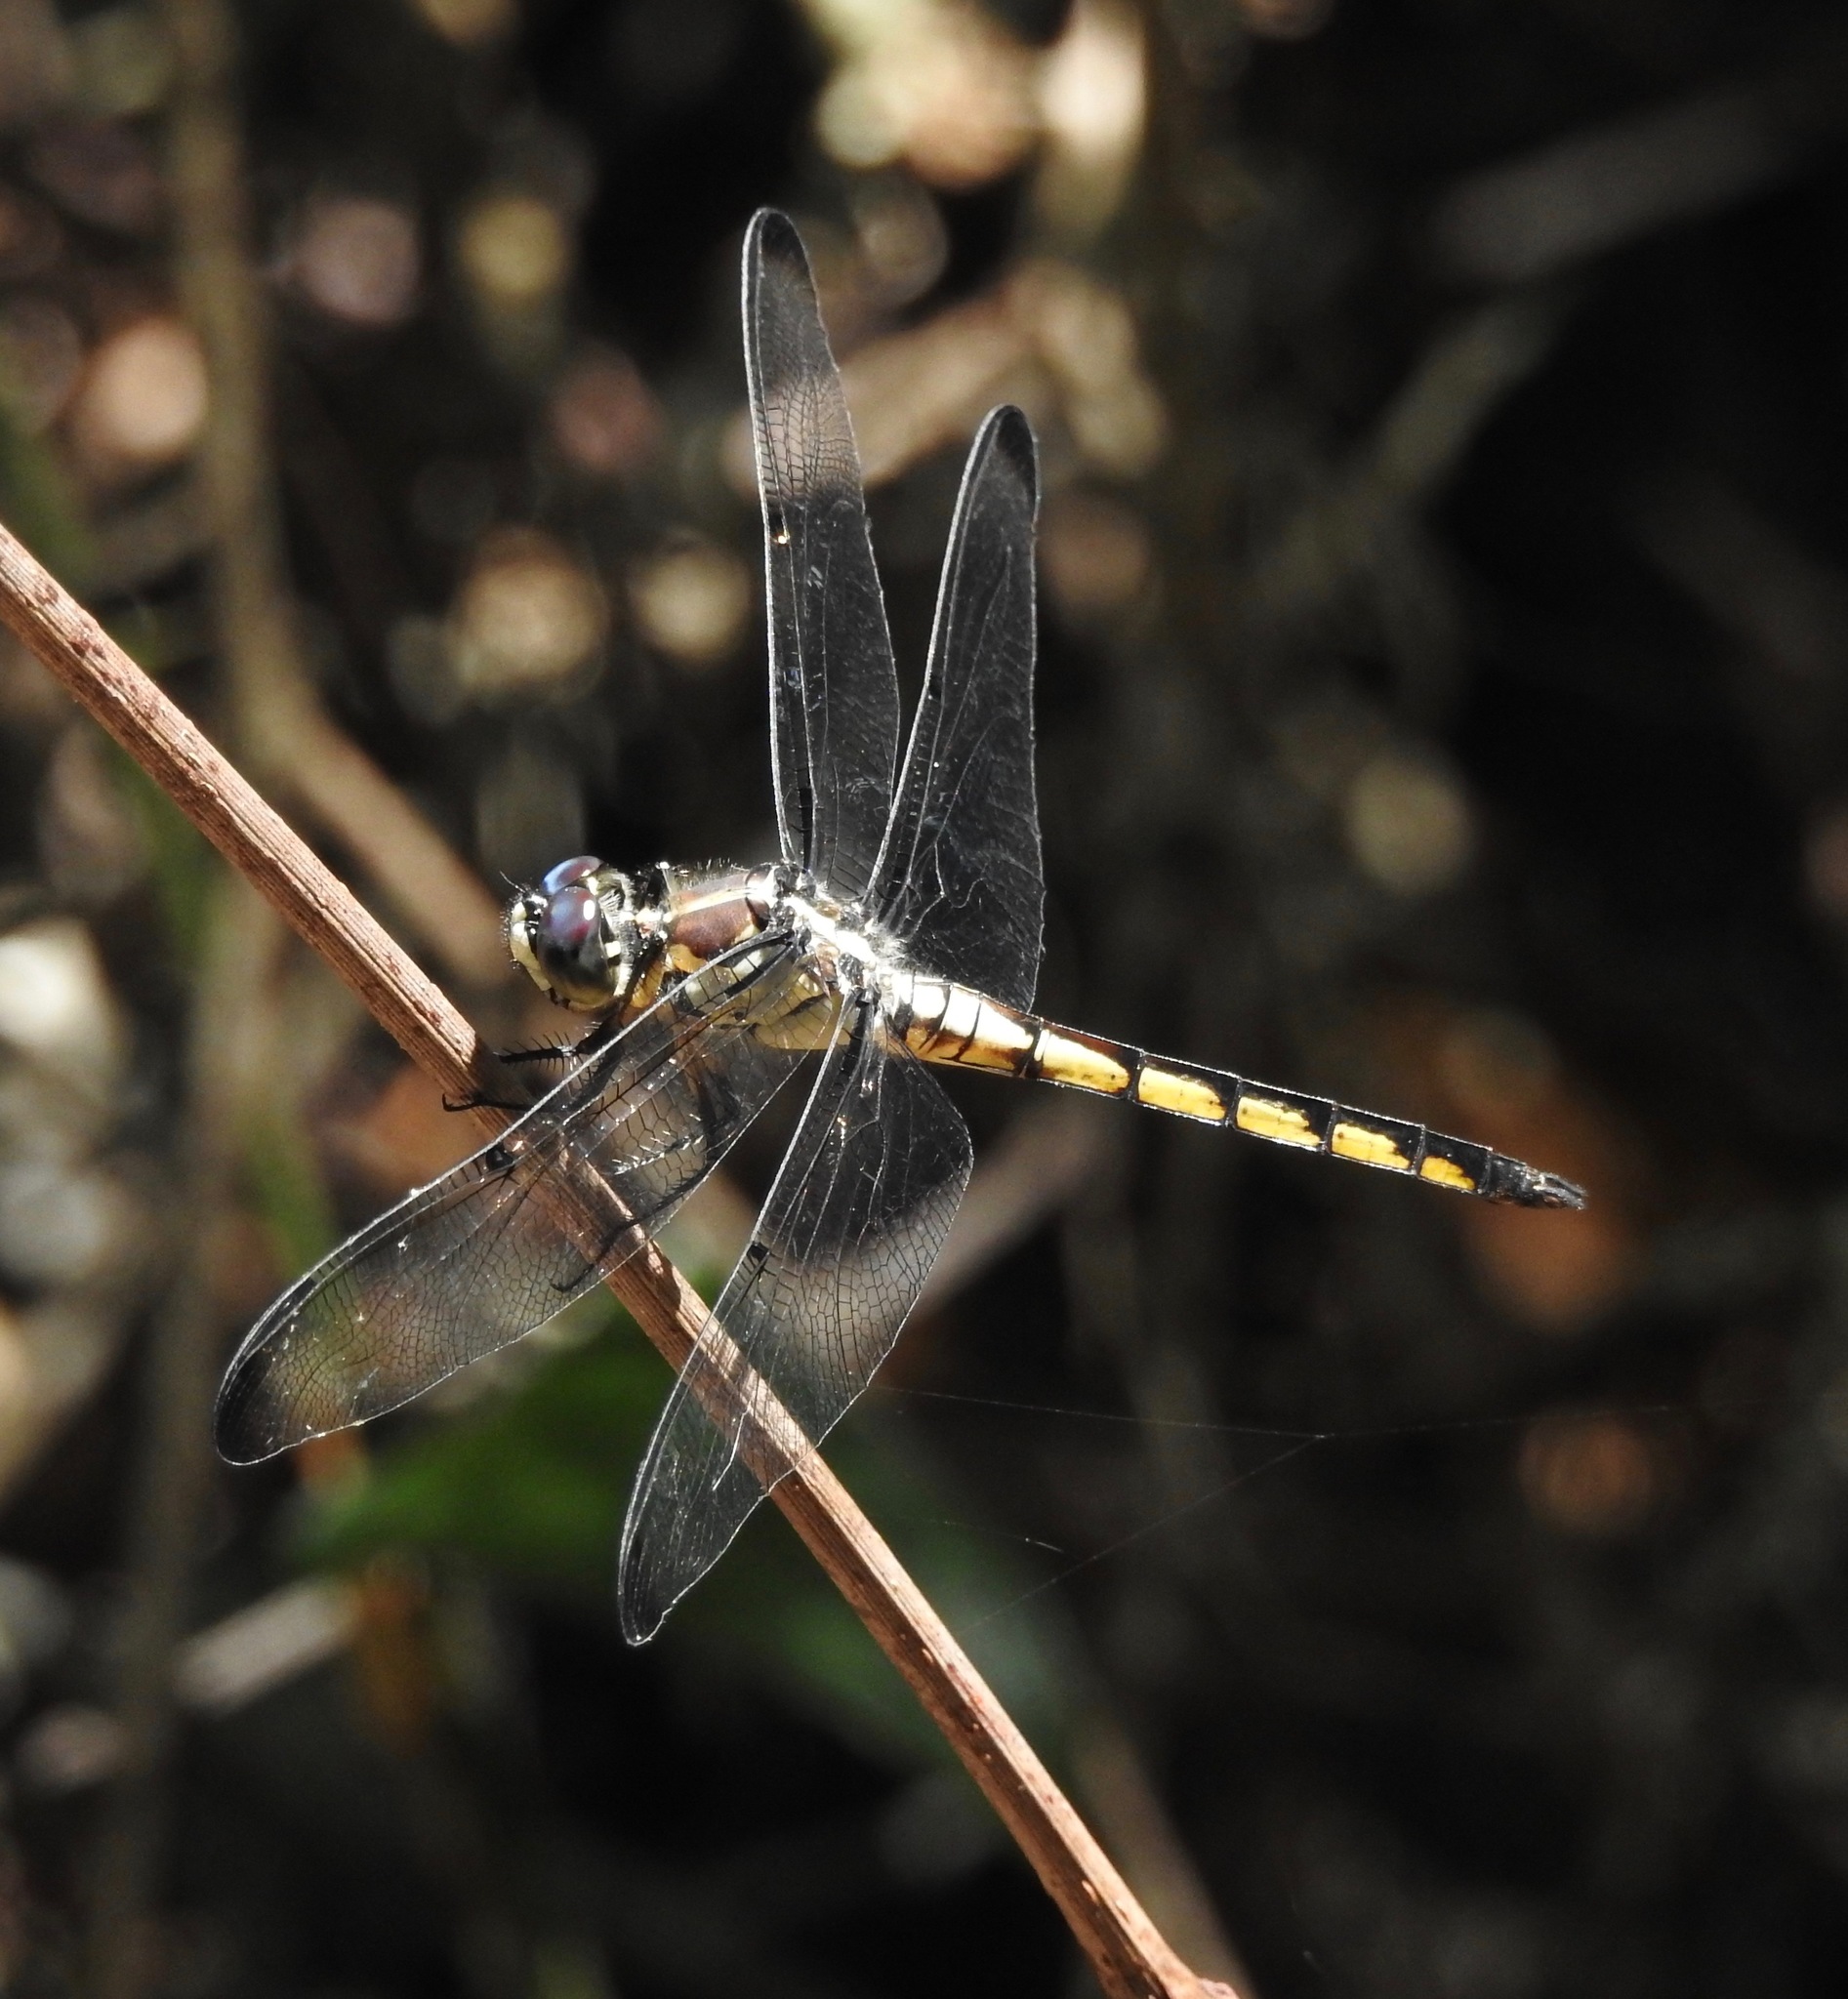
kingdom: Animalia
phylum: Arthropoda
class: Insecta
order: Odonata
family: Libellulidae
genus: Libellula
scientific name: Libellula vibrans
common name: Great blue skimmer
